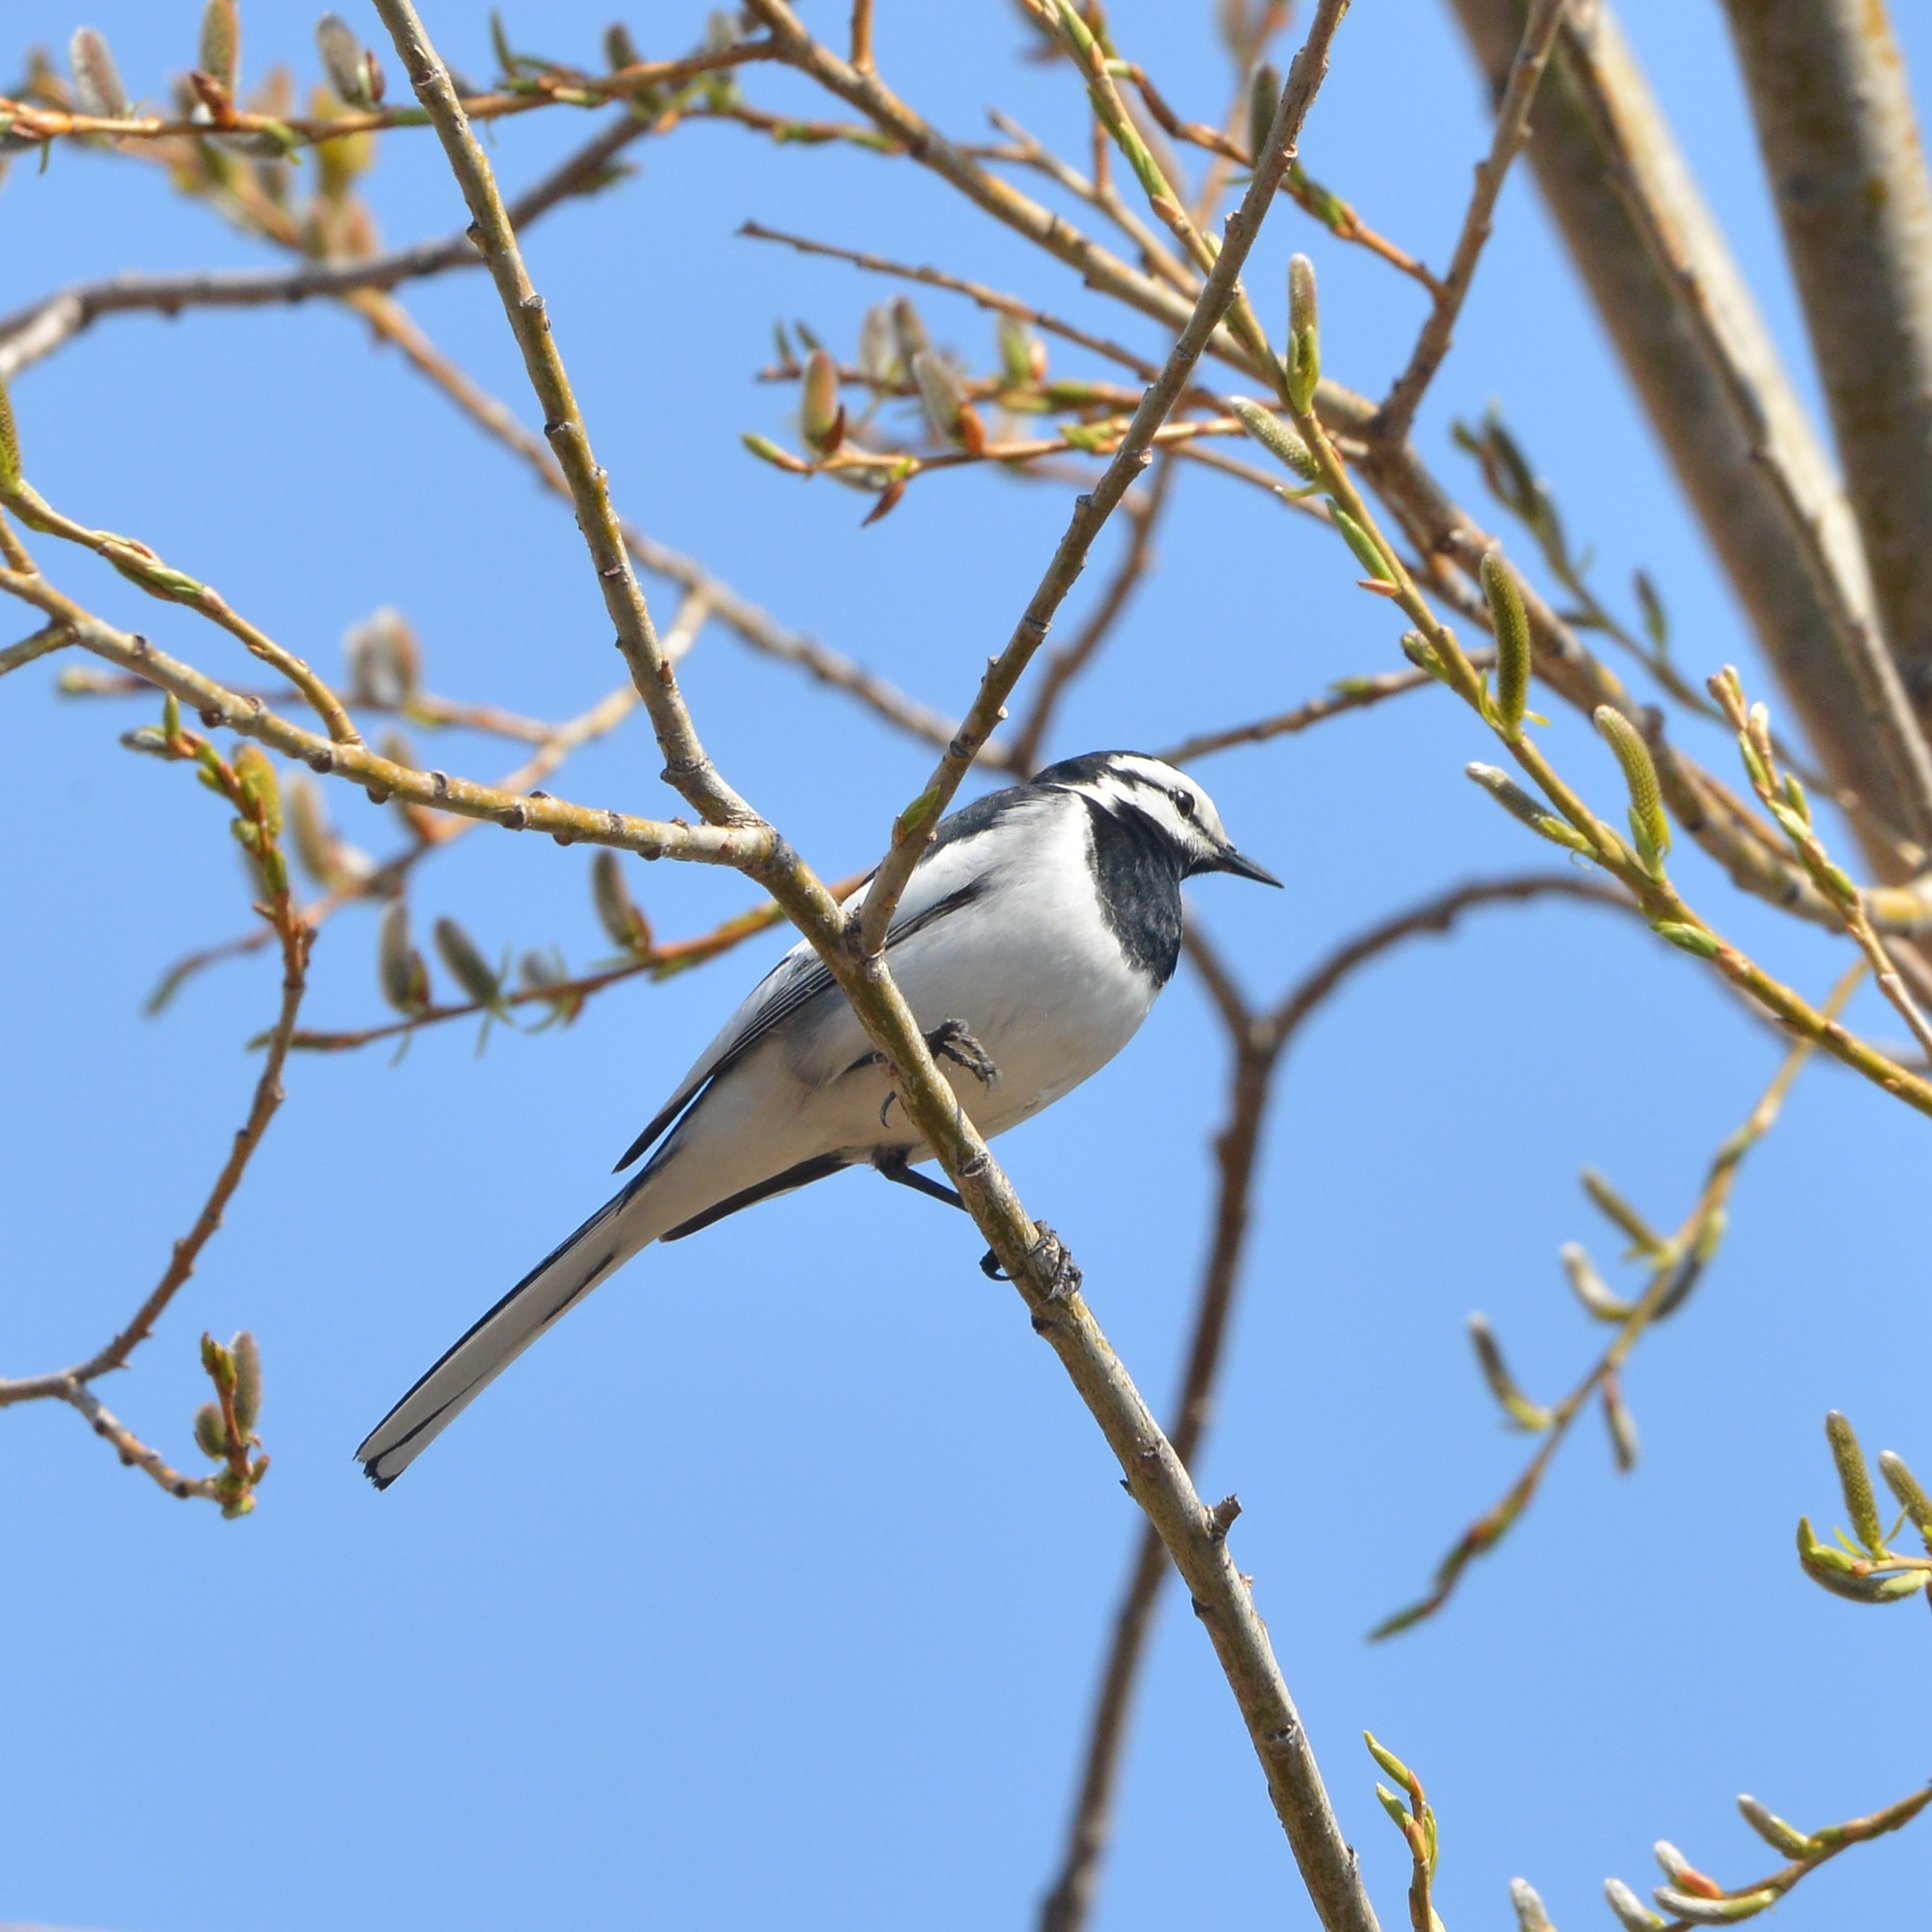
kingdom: Animalia
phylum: Chordata
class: Aves
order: Passeriformes
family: Motacillidae
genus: Motacilla
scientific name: Motacilla alba
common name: White wagtail
